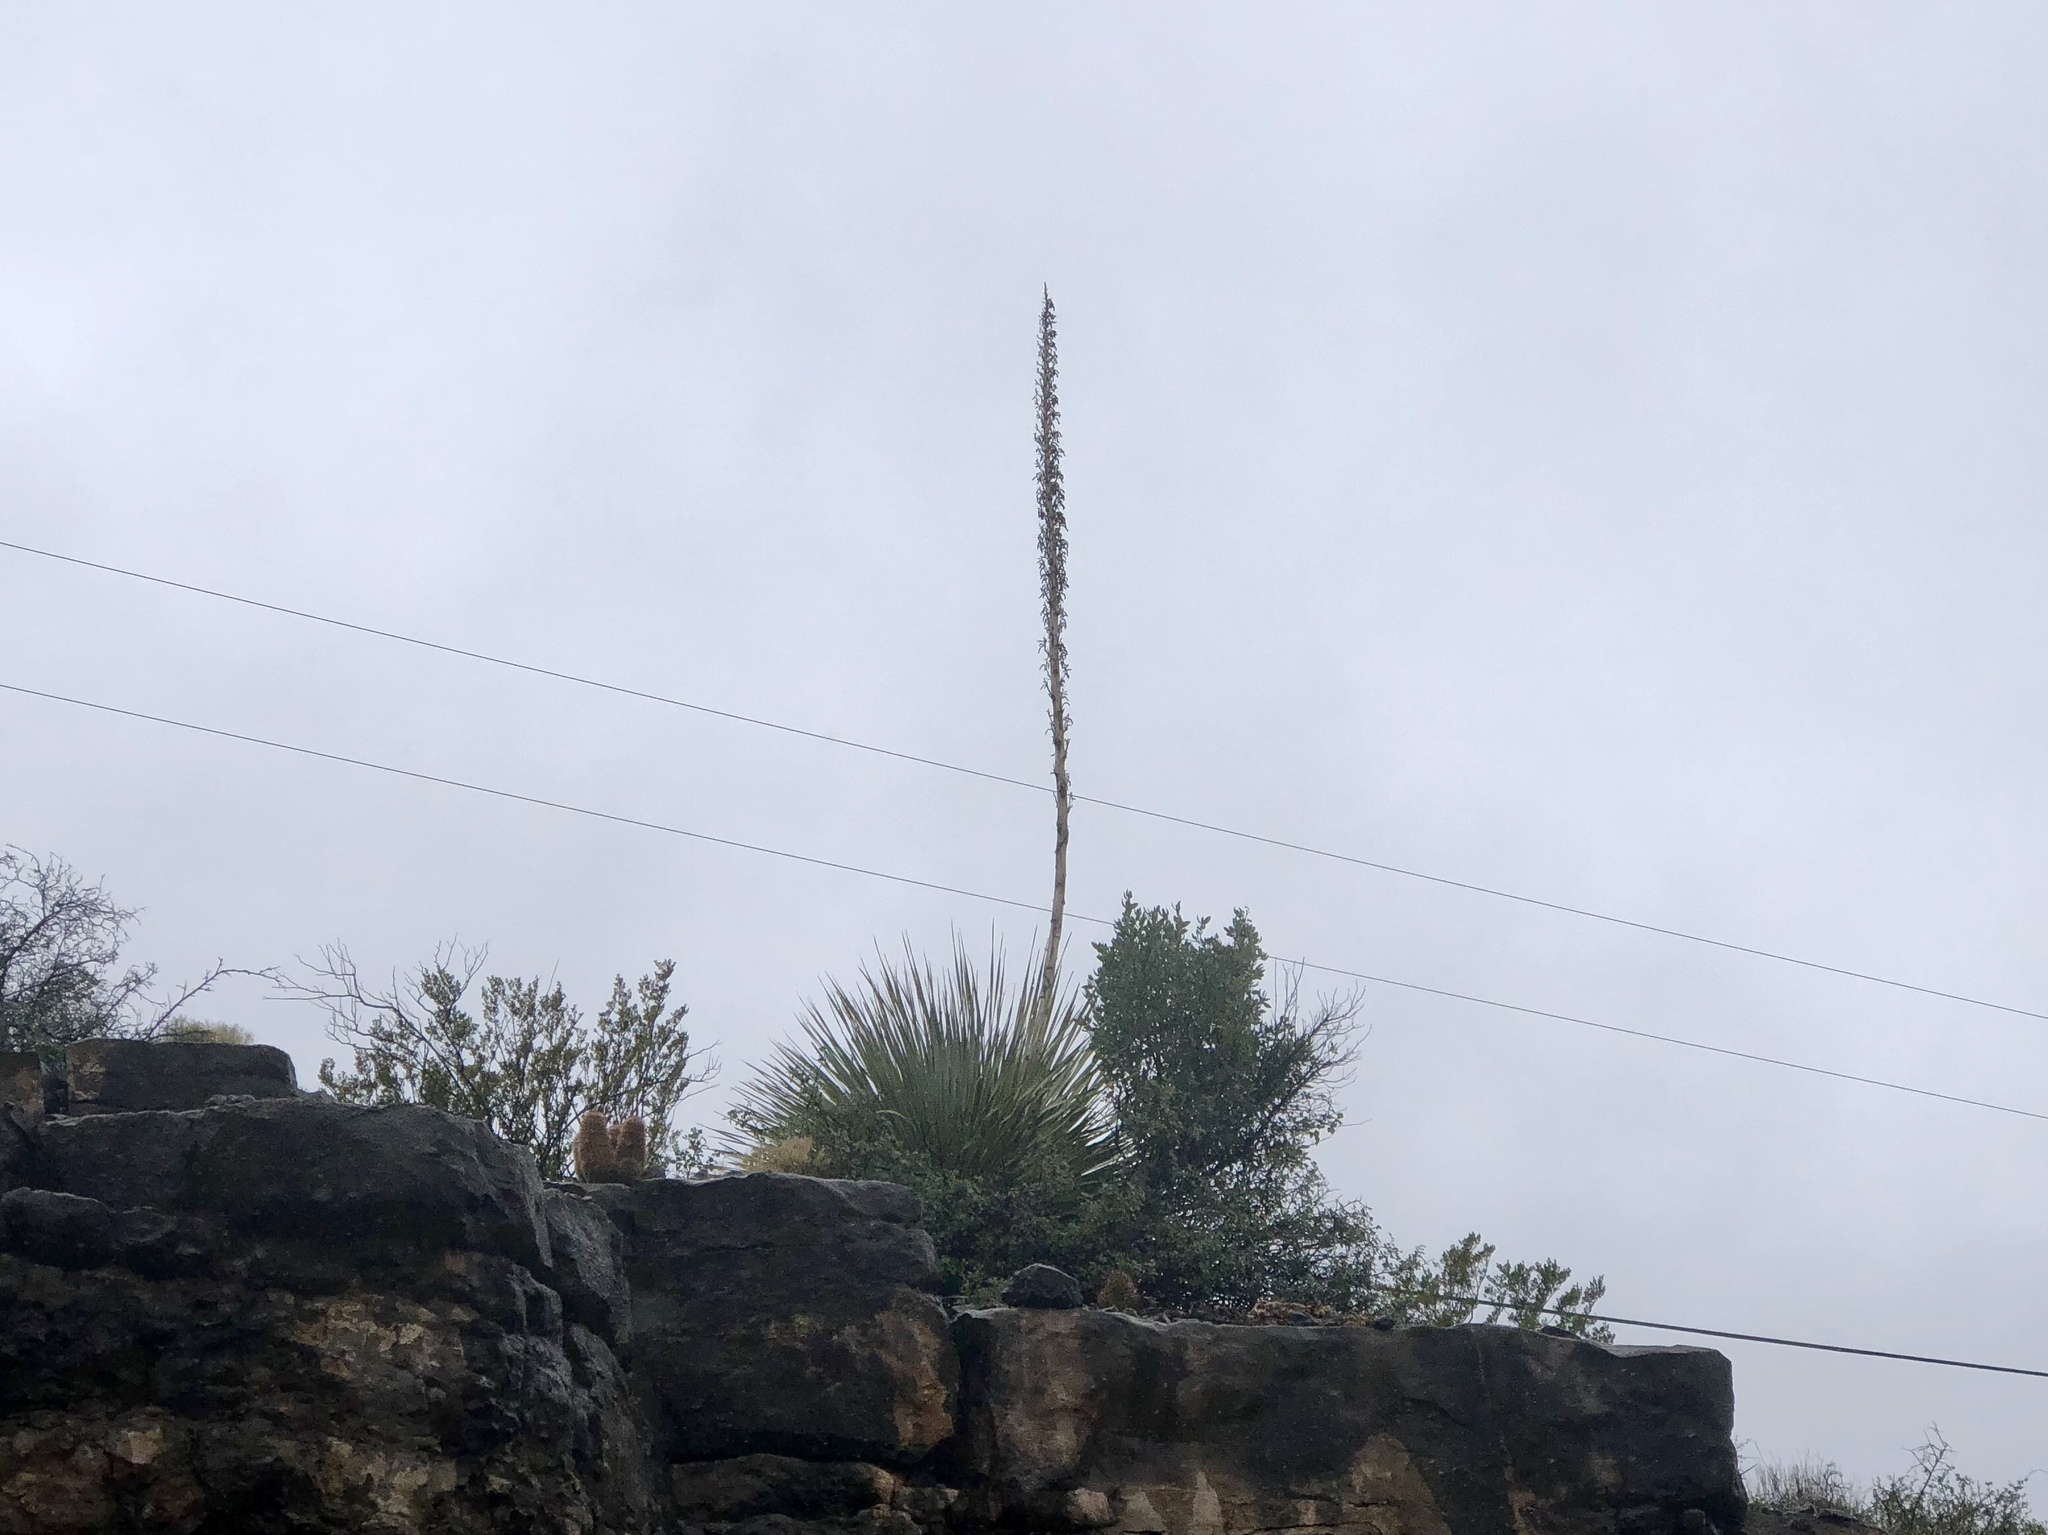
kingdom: Plantae
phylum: Tracheophyta
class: Liliopsida
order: Asparagales
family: Asparagaceae
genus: Dasylirion
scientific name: Dasylirion wheeleri
